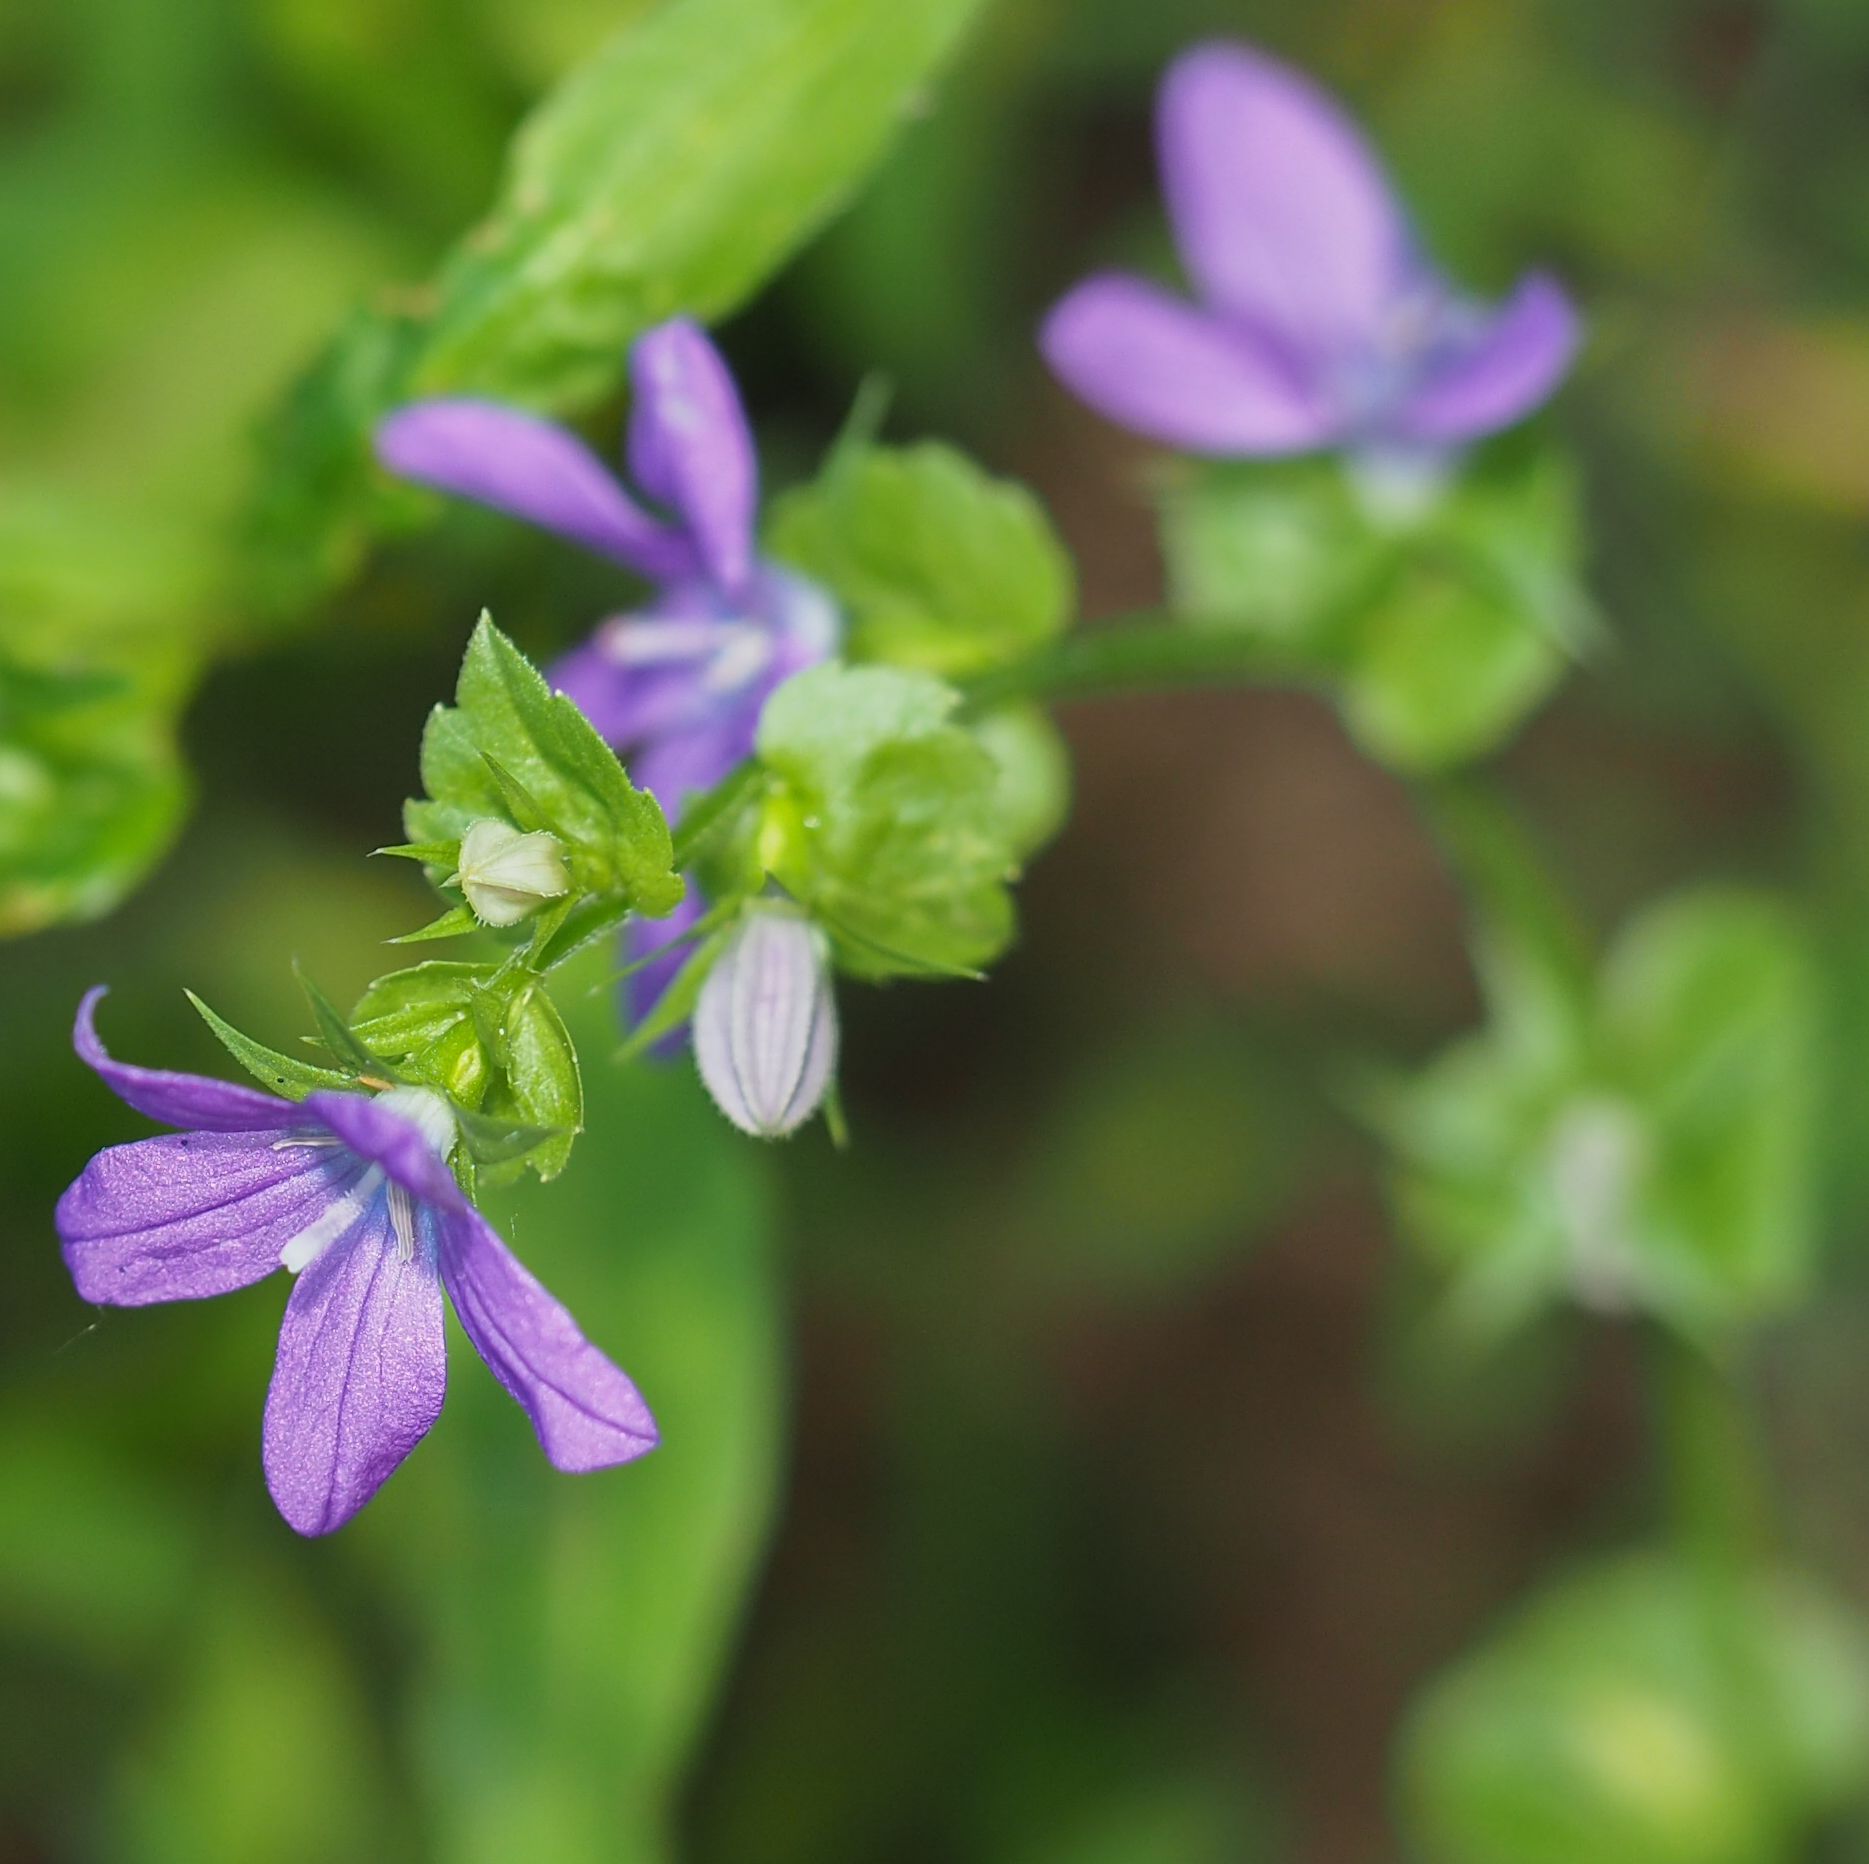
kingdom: Plantae
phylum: Tracheophyta
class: Magnoliopsida
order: Asterales
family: Campanulaceae
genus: Triodanis
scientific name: Triodanis perfoliata
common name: Clasping venus' looking-glass
